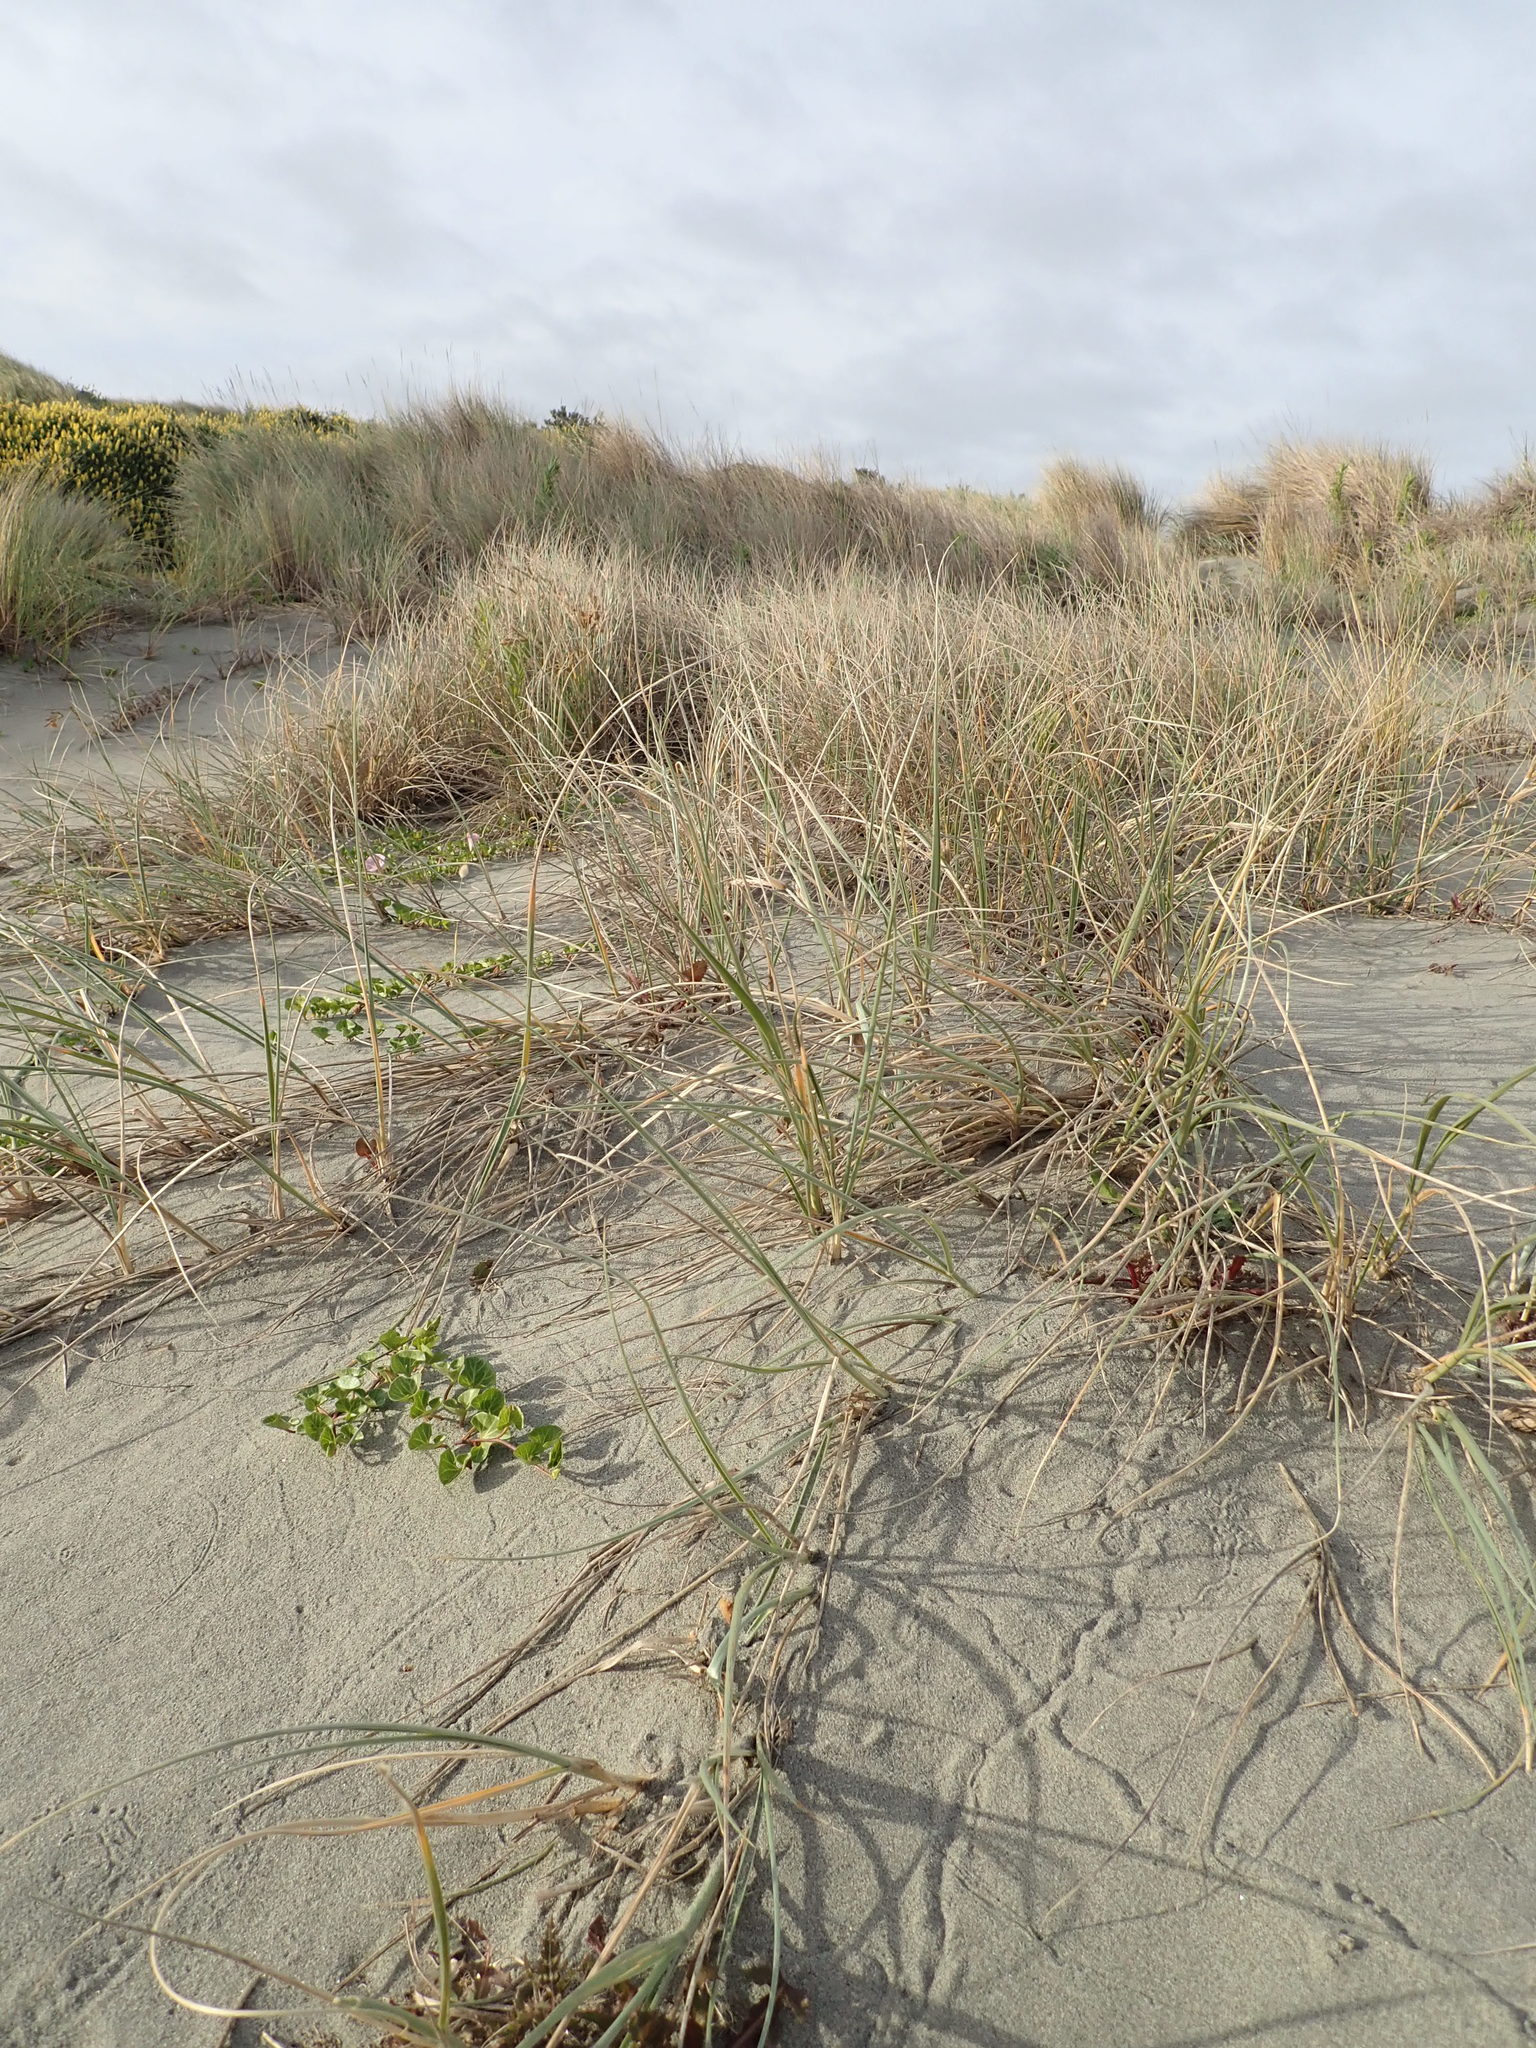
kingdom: Plantae
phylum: Tracheophyta
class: Liliopsida
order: Poales
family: Poaceae
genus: Spinifex
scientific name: Spinifex sericeus
